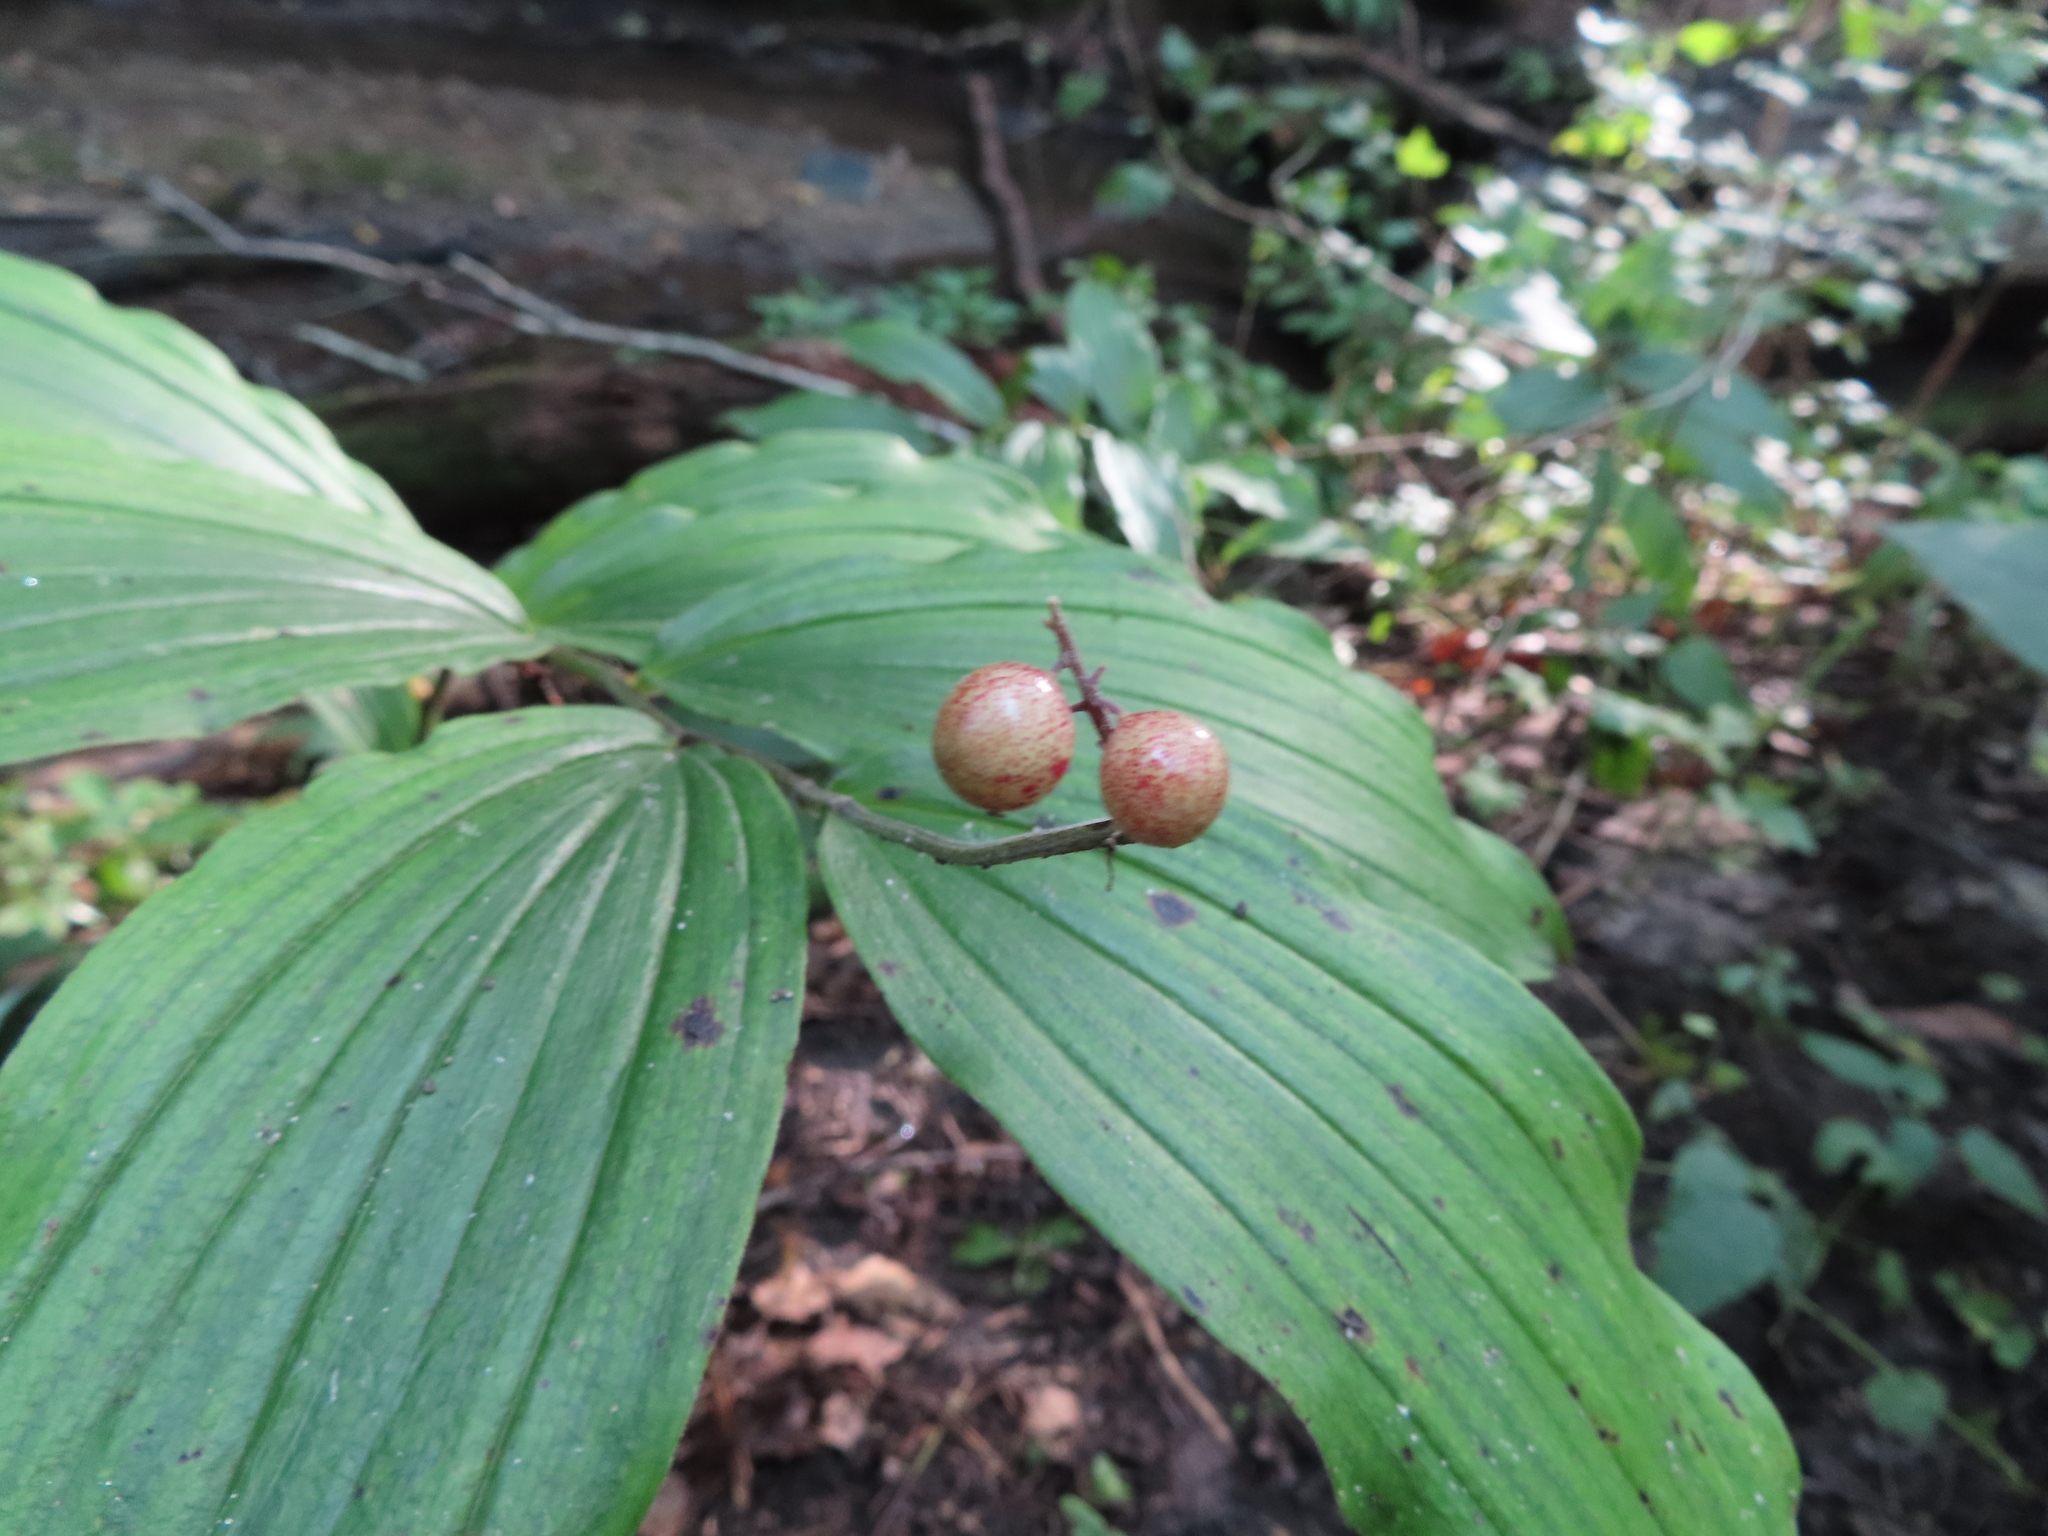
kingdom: Plantae
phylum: Tracheophyta
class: Liliopsida
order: Asparagales
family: Asparagaceae
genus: Maianthemum
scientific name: Maianthemum racemosum
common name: False spikenard
